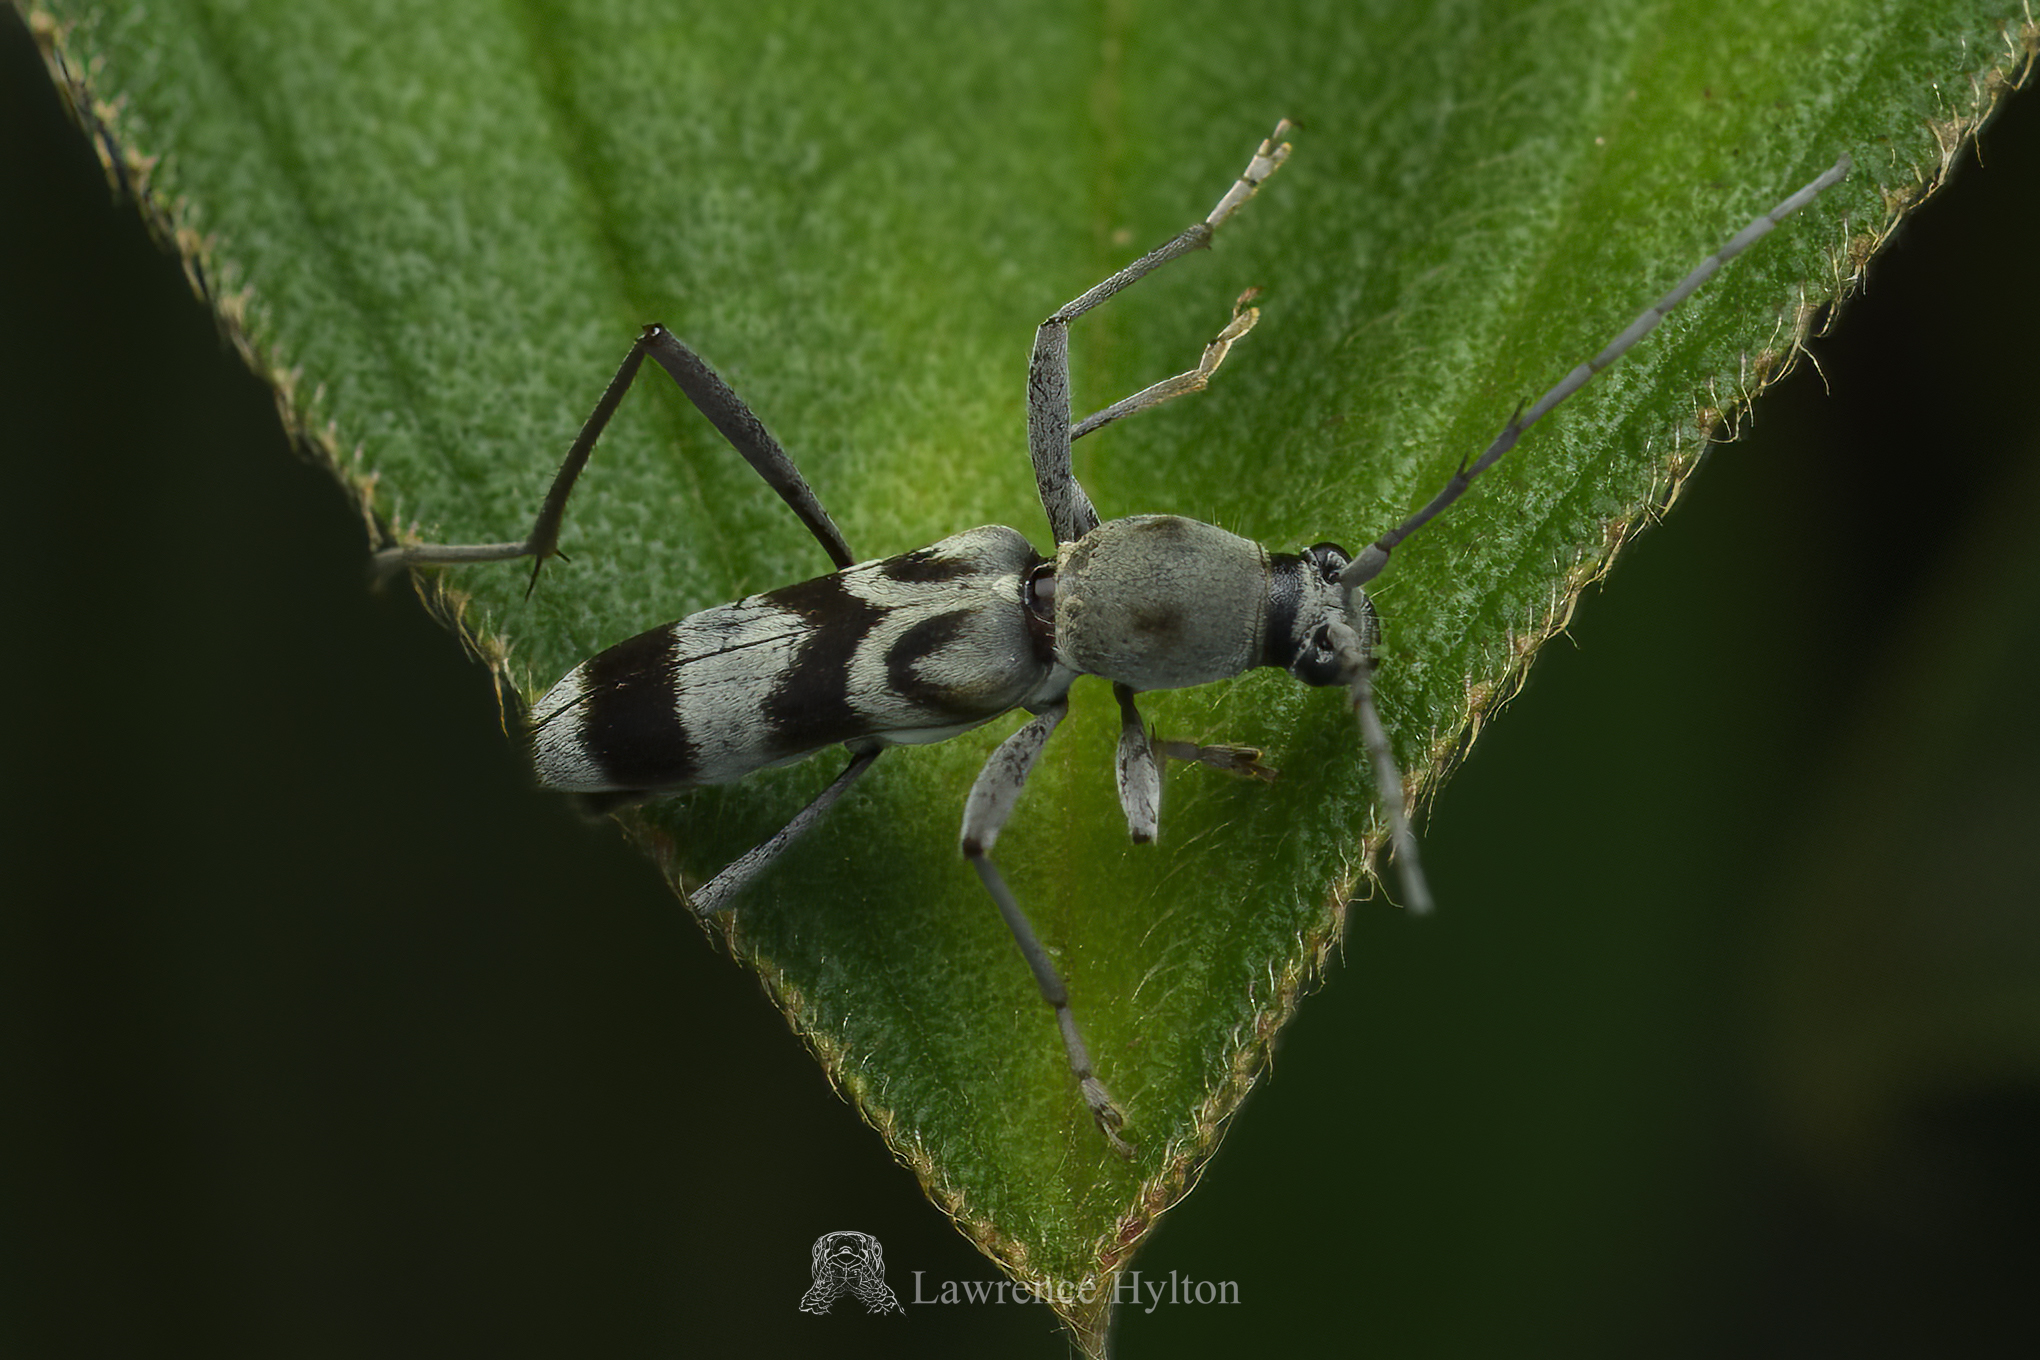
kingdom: Animalia
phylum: Arthropoda
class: Insecta
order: Coleoptera
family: Cerambycidae
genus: Chlorophorus
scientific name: Chlorophorus macaumensis
